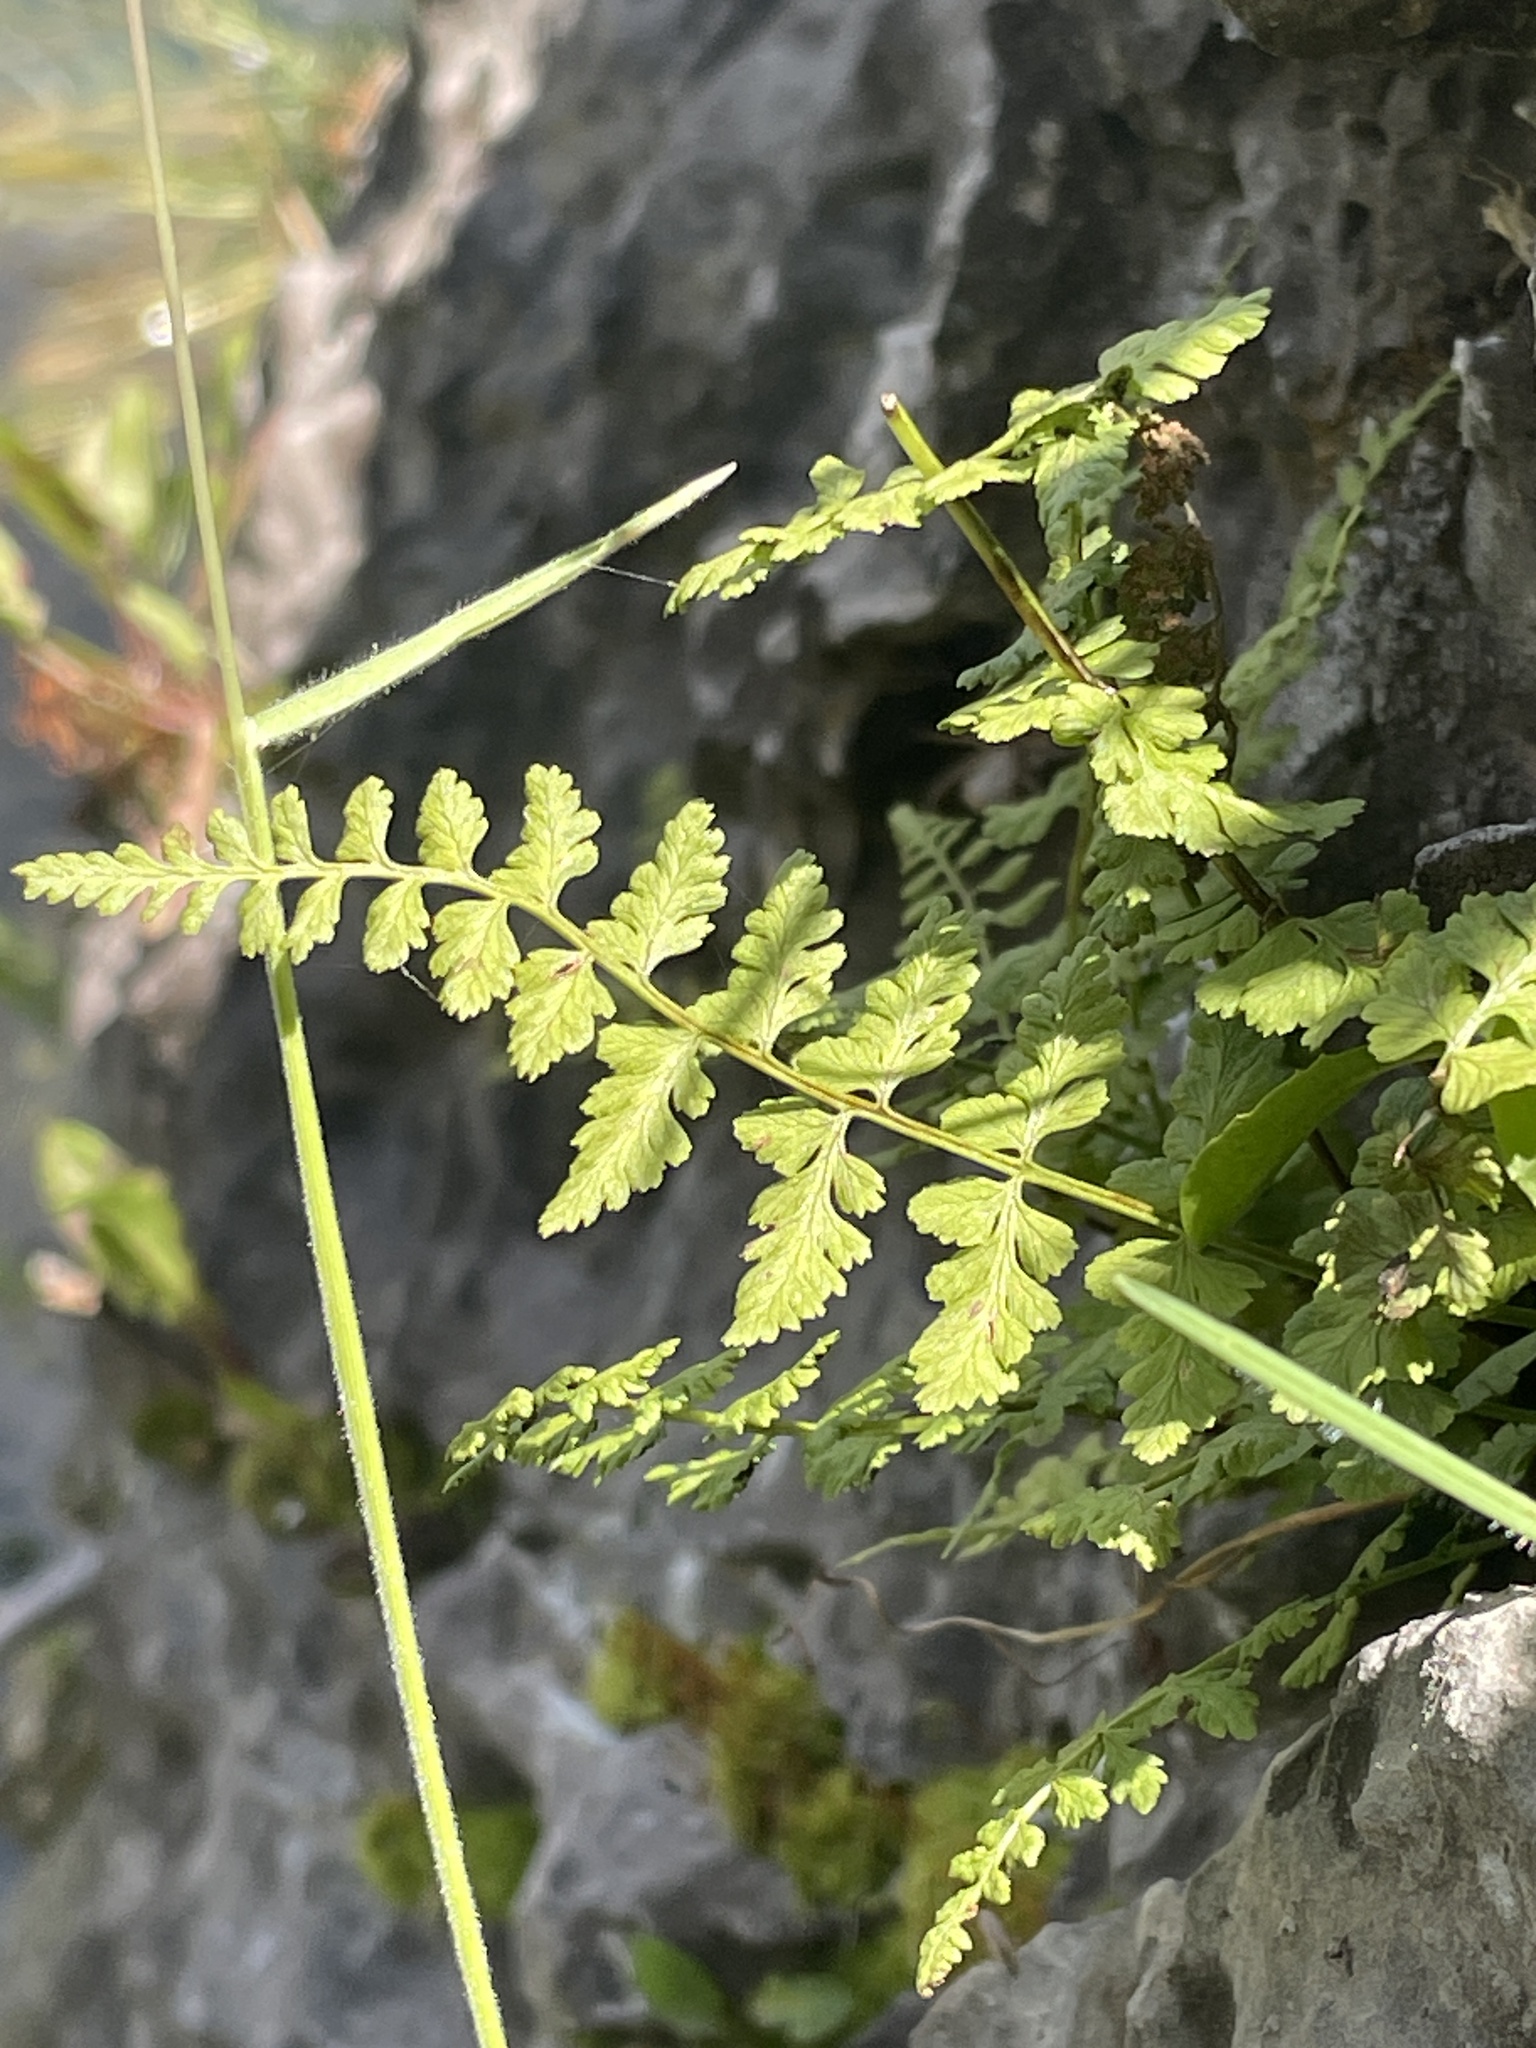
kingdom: Plantae
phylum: Tracheophyta
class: Polypodiopsida
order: Polypodiales
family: Cystopteridaceae
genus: Cystopteris
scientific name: Cystopteris fragilis
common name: Brittle bladder fern
